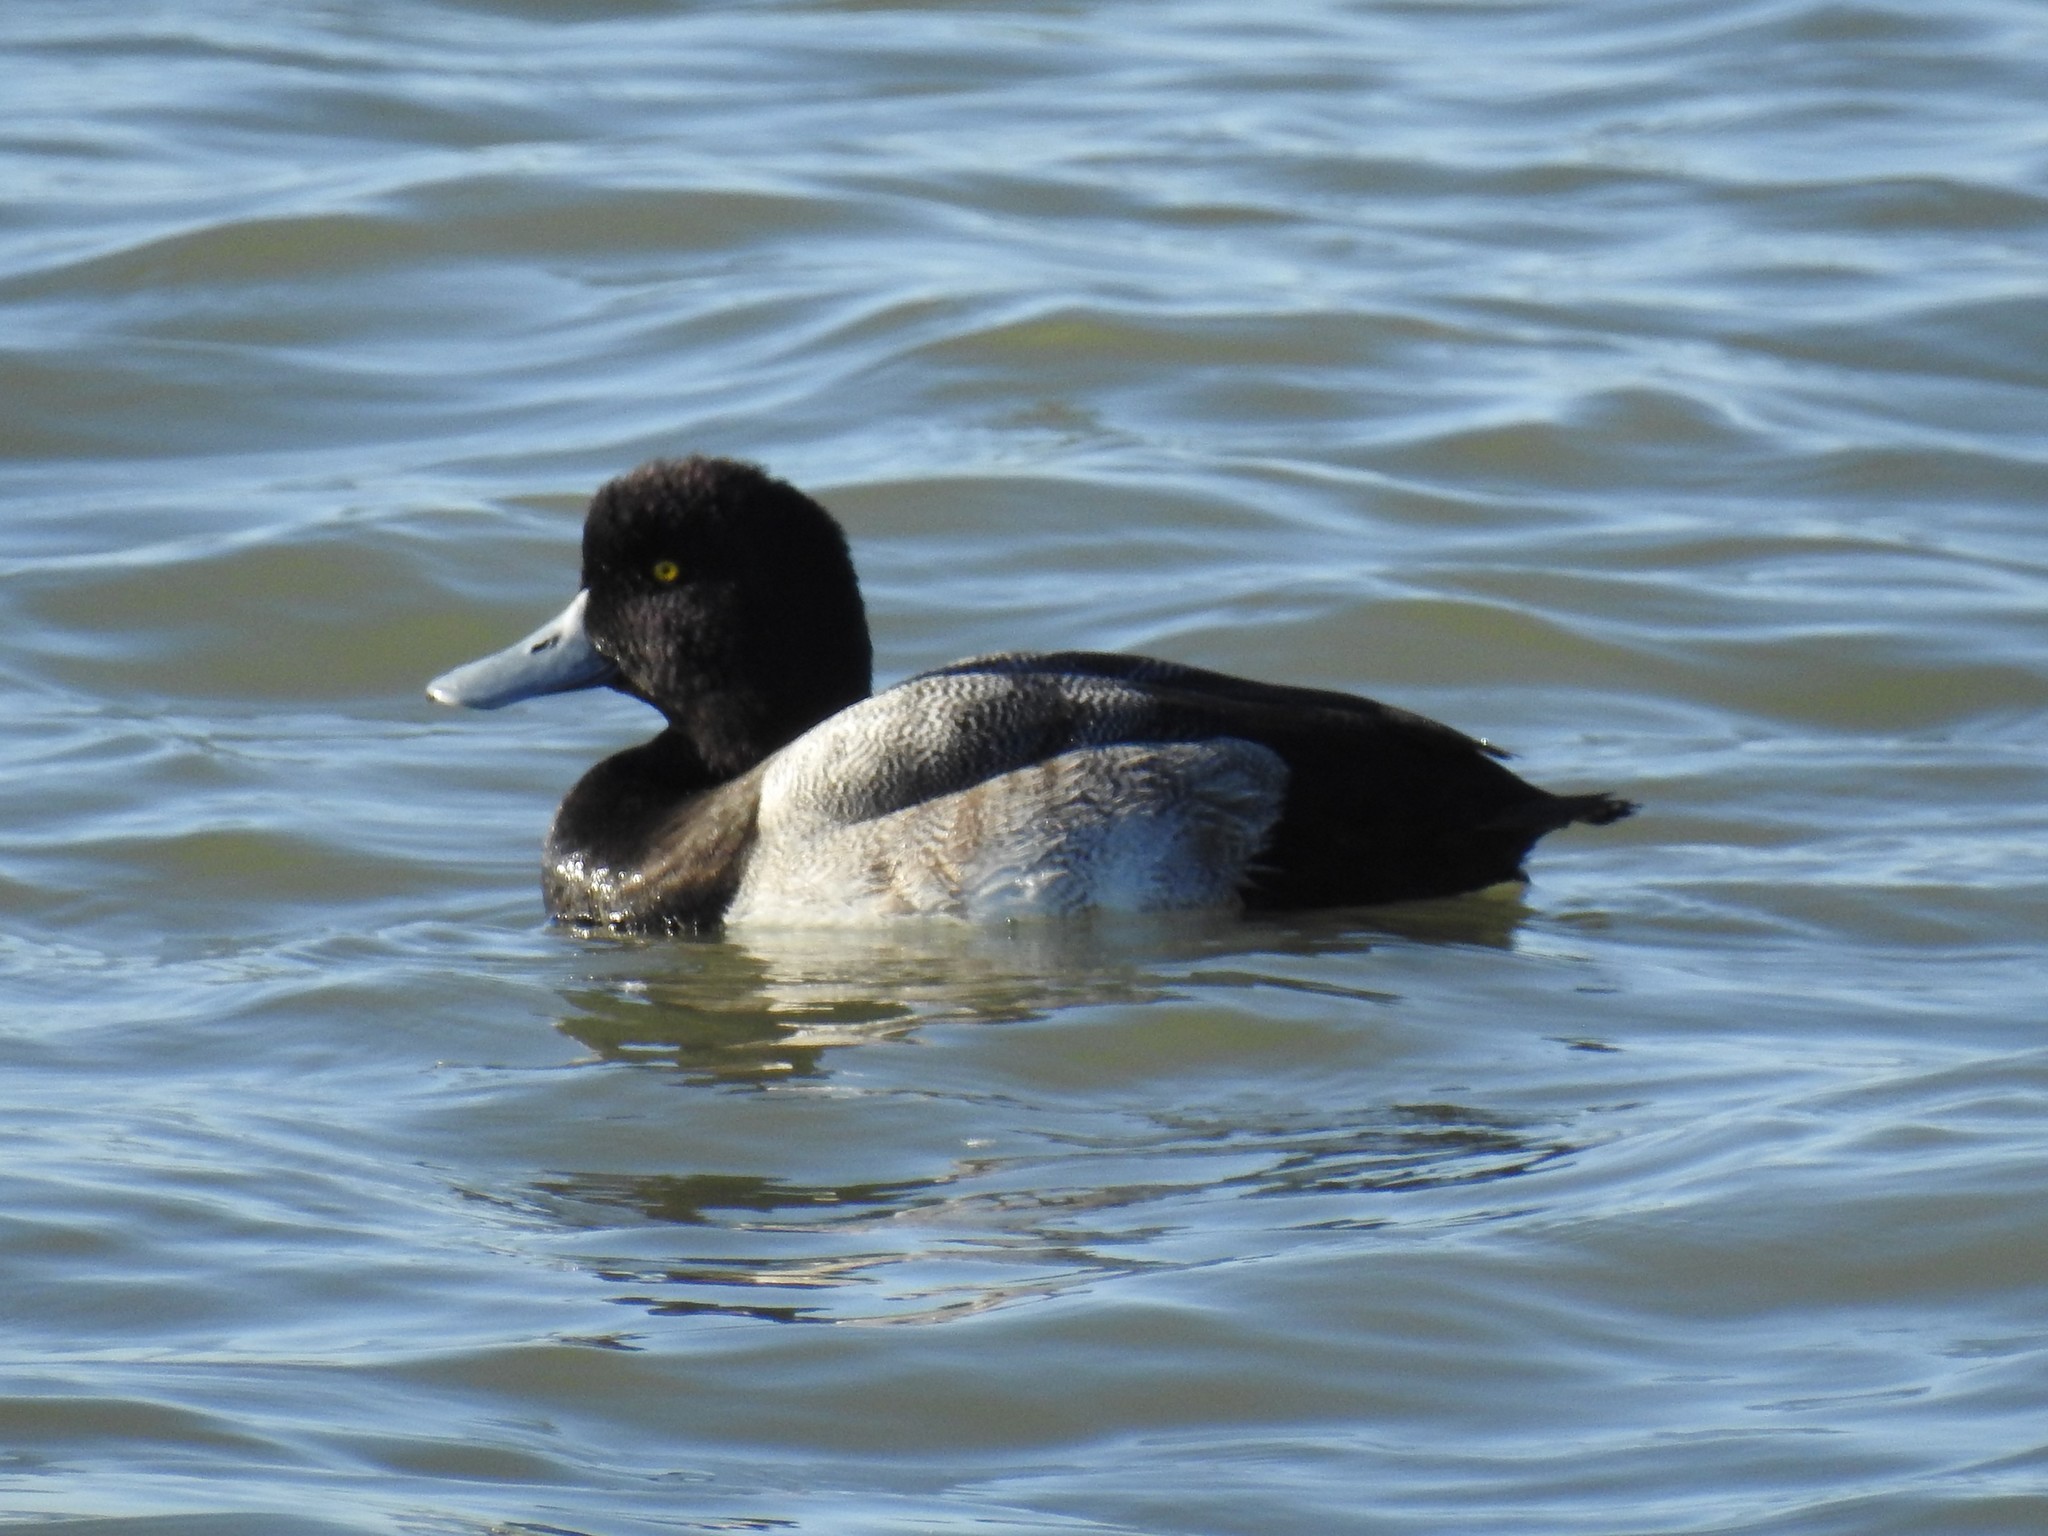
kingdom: Animalia
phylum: Chordata
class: Aves
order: Anseriformes
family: Anatidae
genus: Aythya
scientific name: Aythya affinis
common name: Lesser scaup
